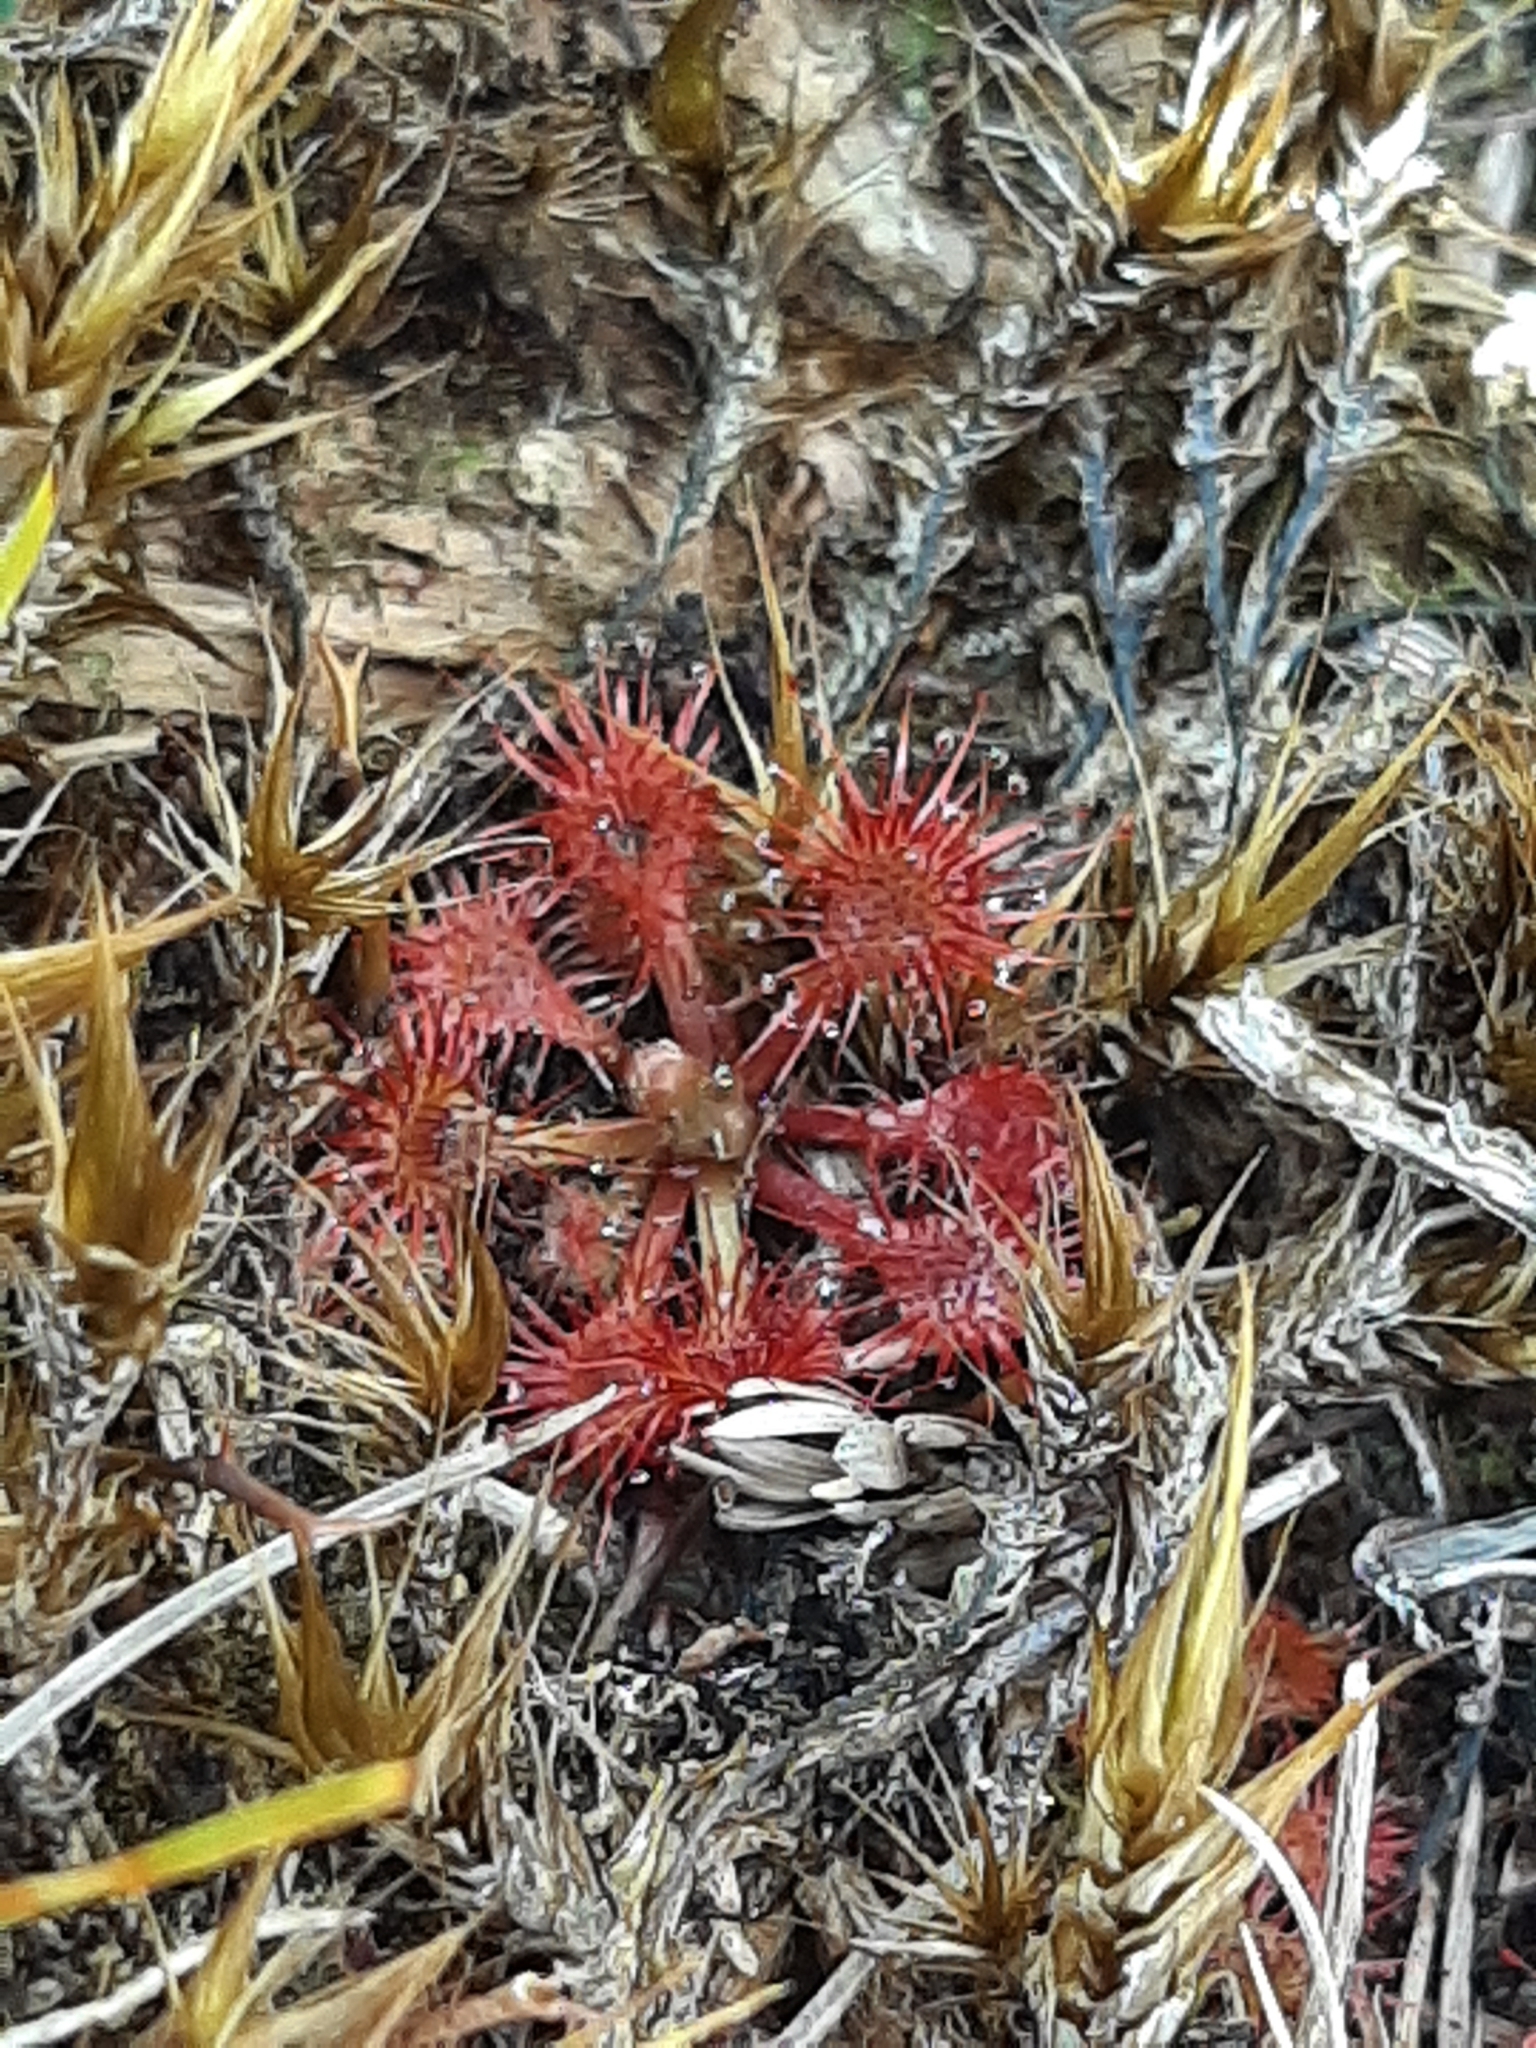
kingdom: Plantae
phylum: Tracheophyta
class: Magnoliopsida
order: Caryophyllales
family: Droseraceae
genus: Drosera
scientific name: Drosera spatulata
